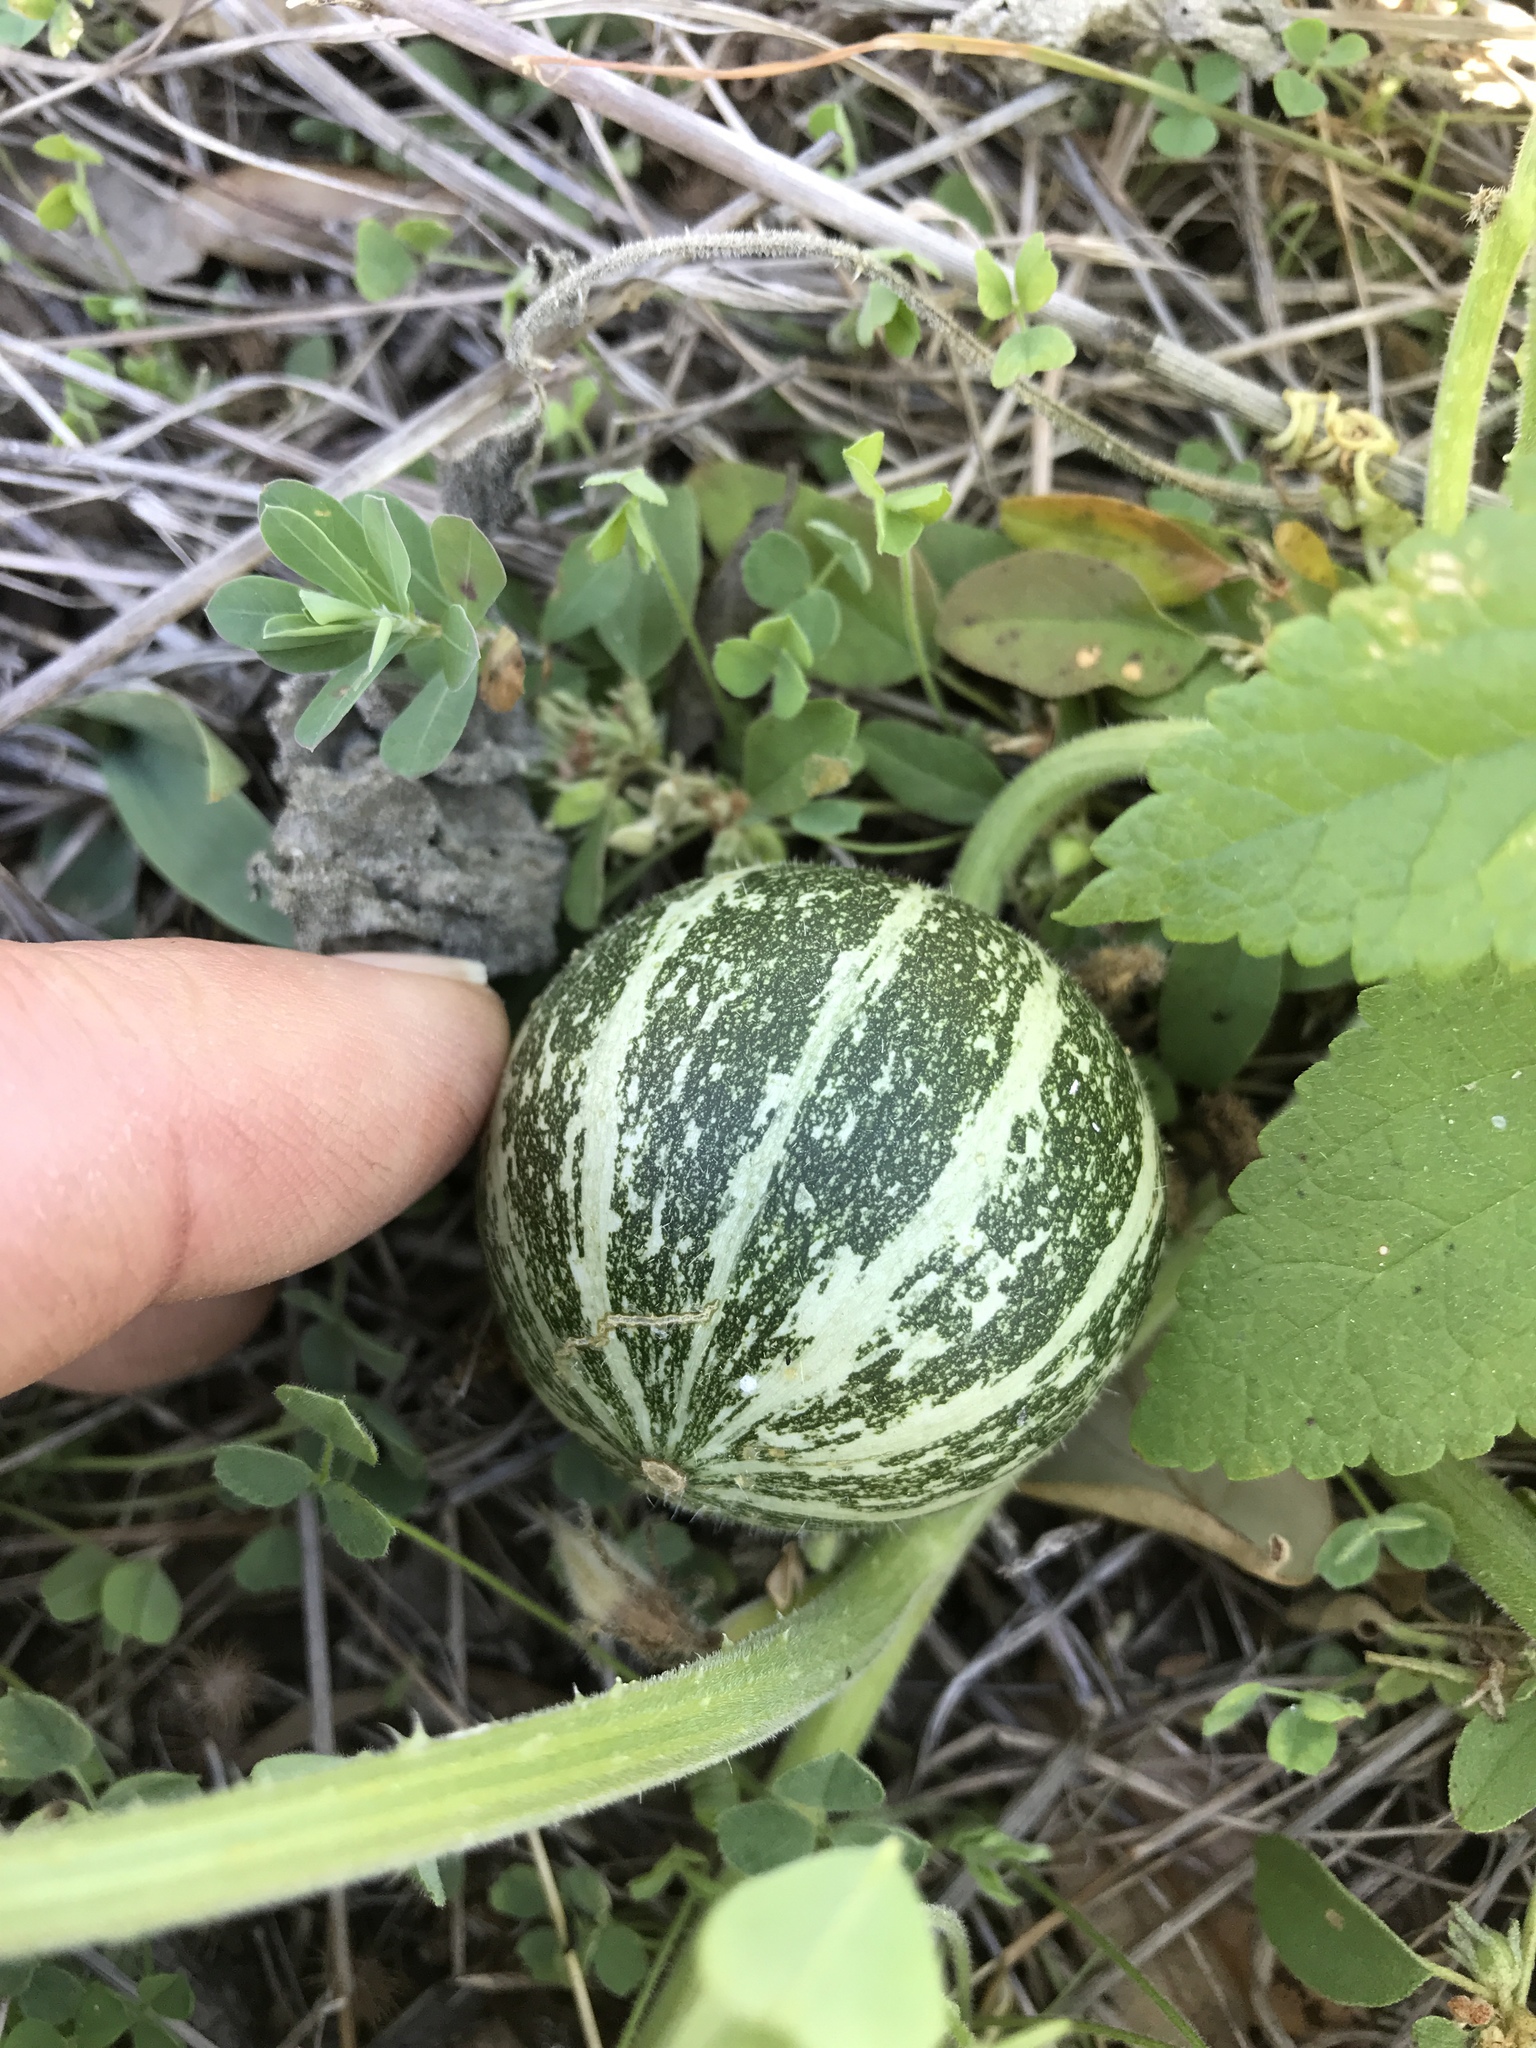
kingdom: Plantae
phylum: Tracheophyta
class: Magnoliopsida
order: Cucurbitales
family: Cucurbitaceae
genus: Cucumis
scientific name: Cucumis melo
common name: Melon
